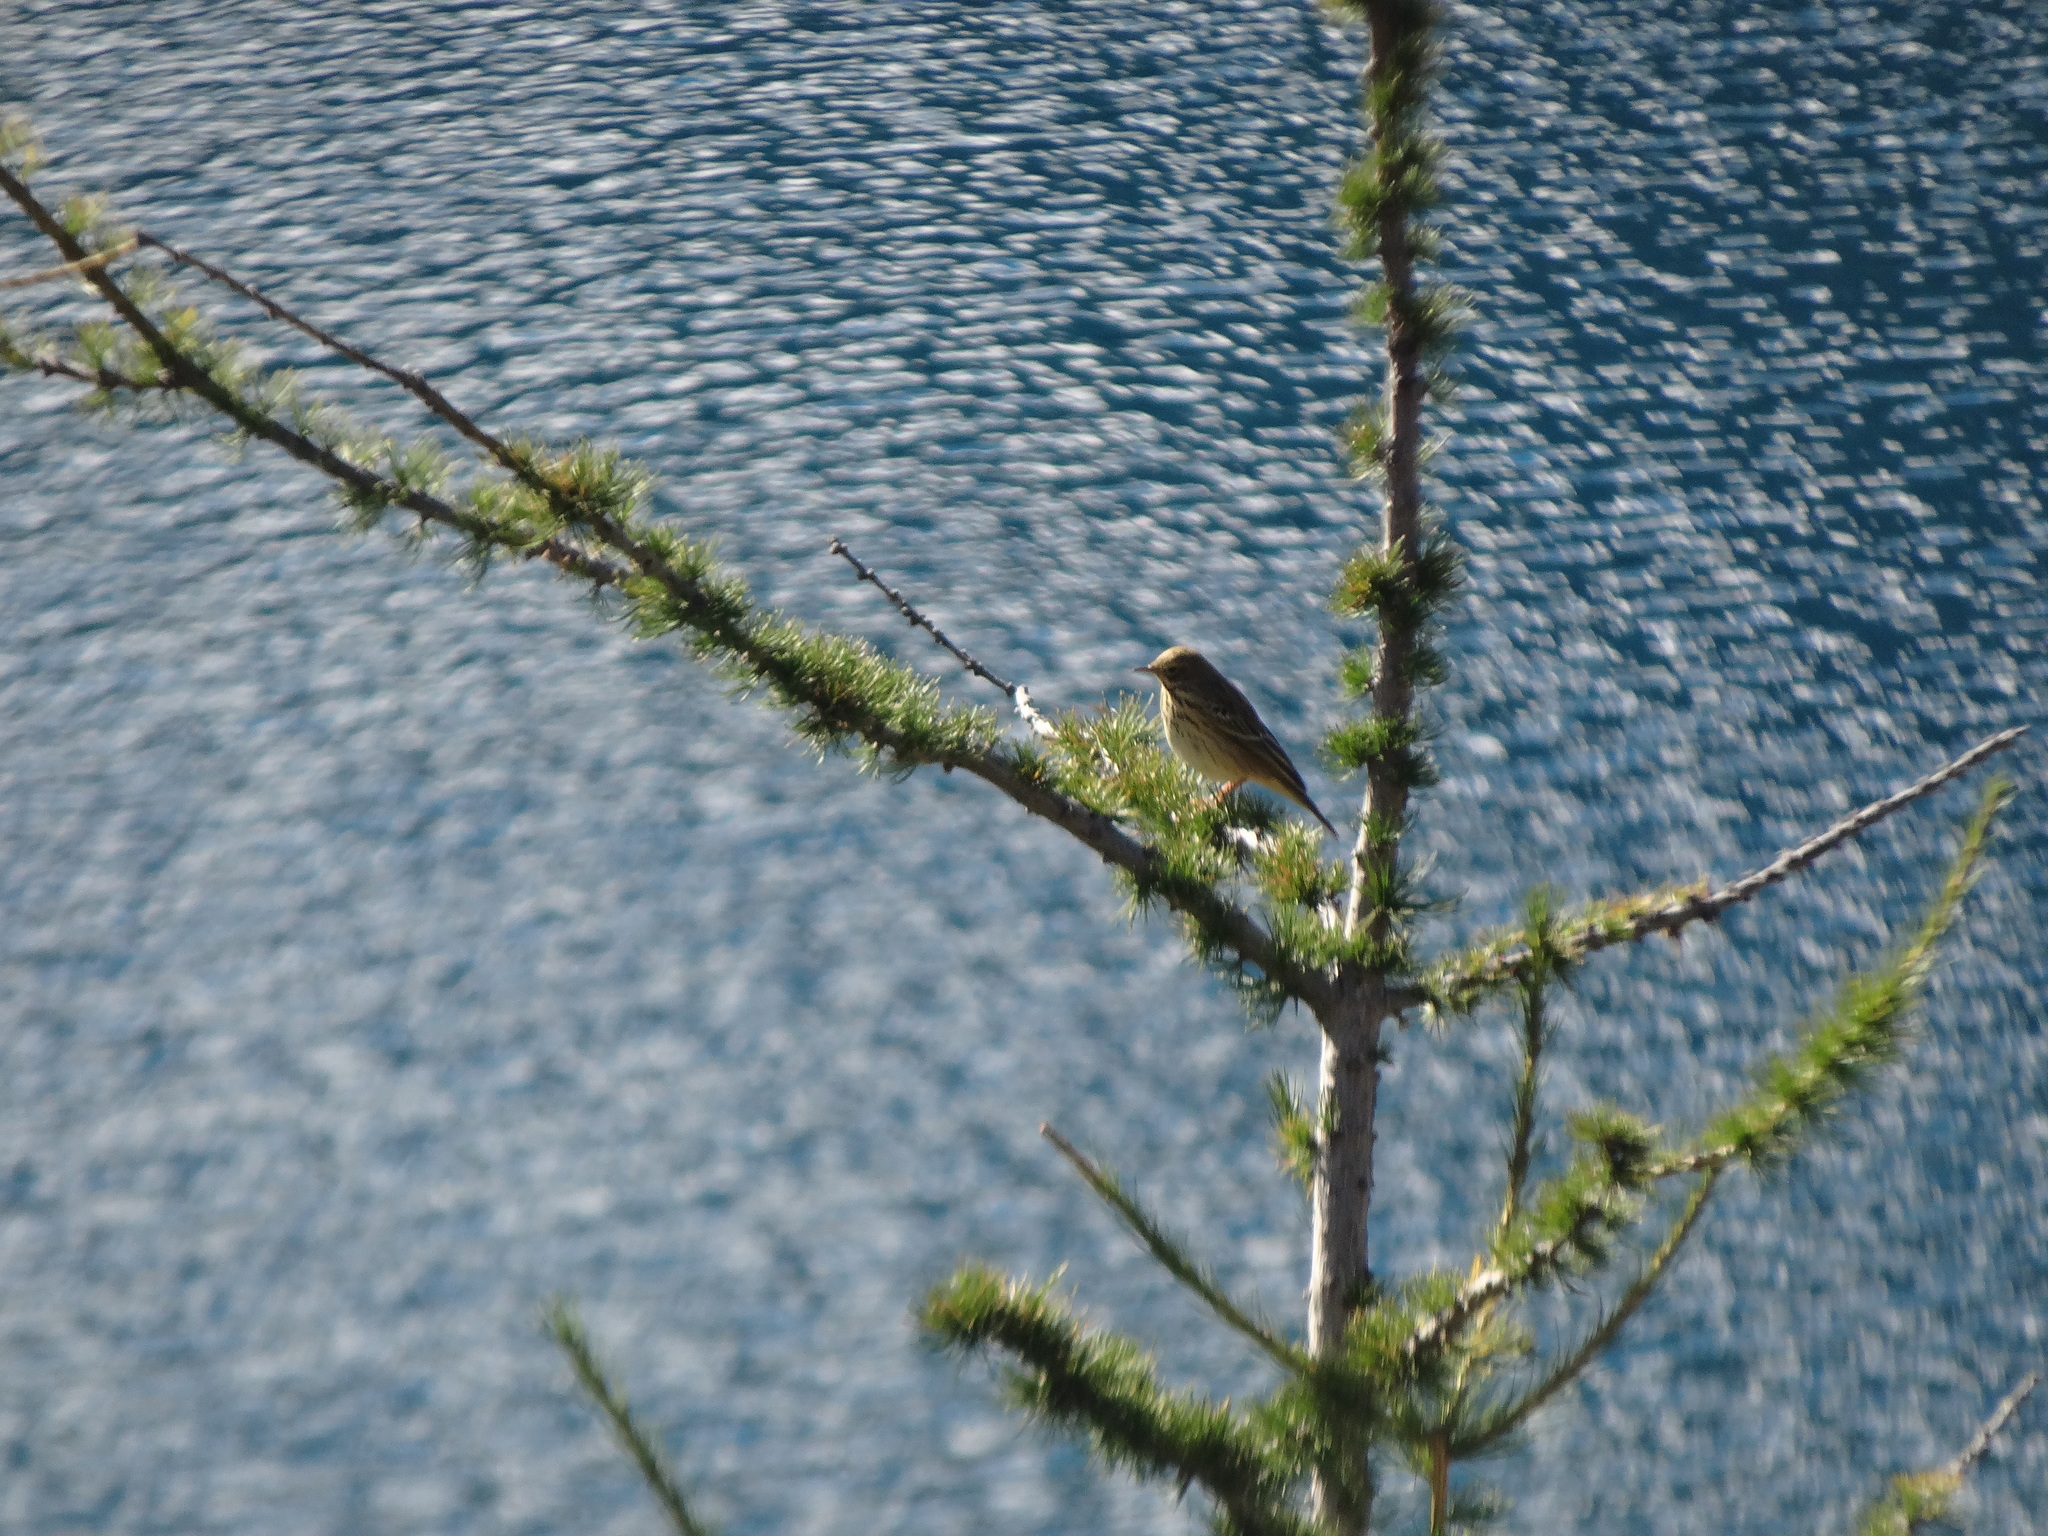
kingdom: Animalia
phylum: Chordata
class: Aves
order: Passeriformes
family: Motacillidae
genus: Anthus
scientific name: Anthus trivialis
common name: Tree pipit
